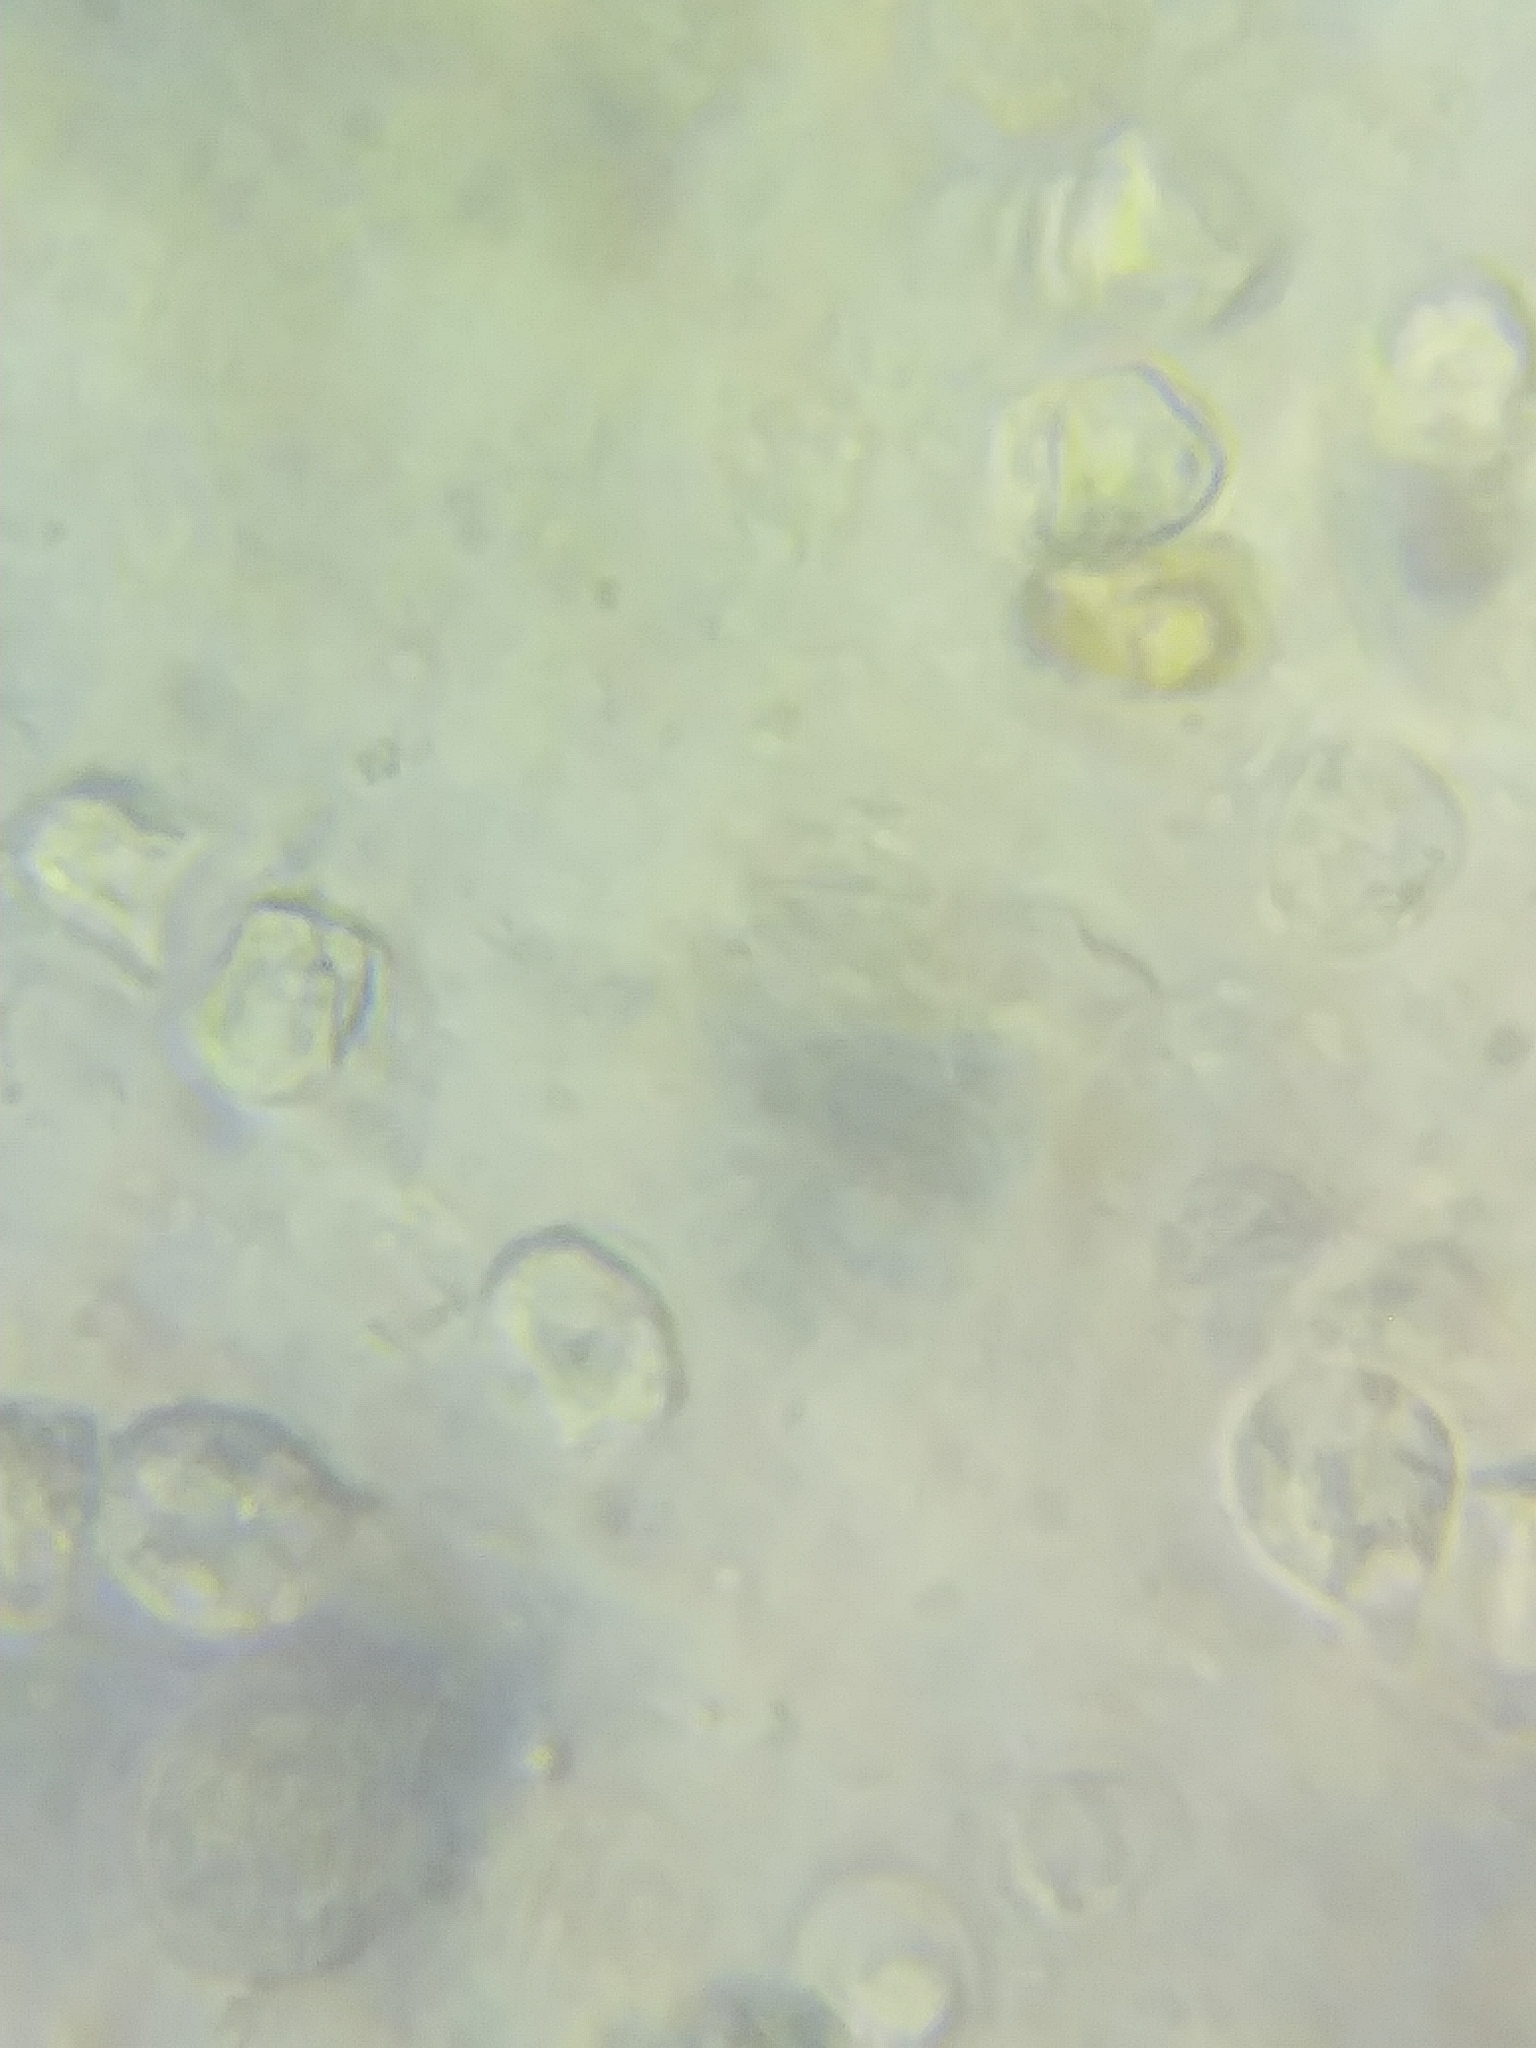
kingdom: Fungi
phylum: Basidiomycota
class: Agaricomycetes
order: Agaricales
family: Amanitaceae
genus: Amanita
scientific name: Amanita porphyria
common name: Grey veiled amanita
